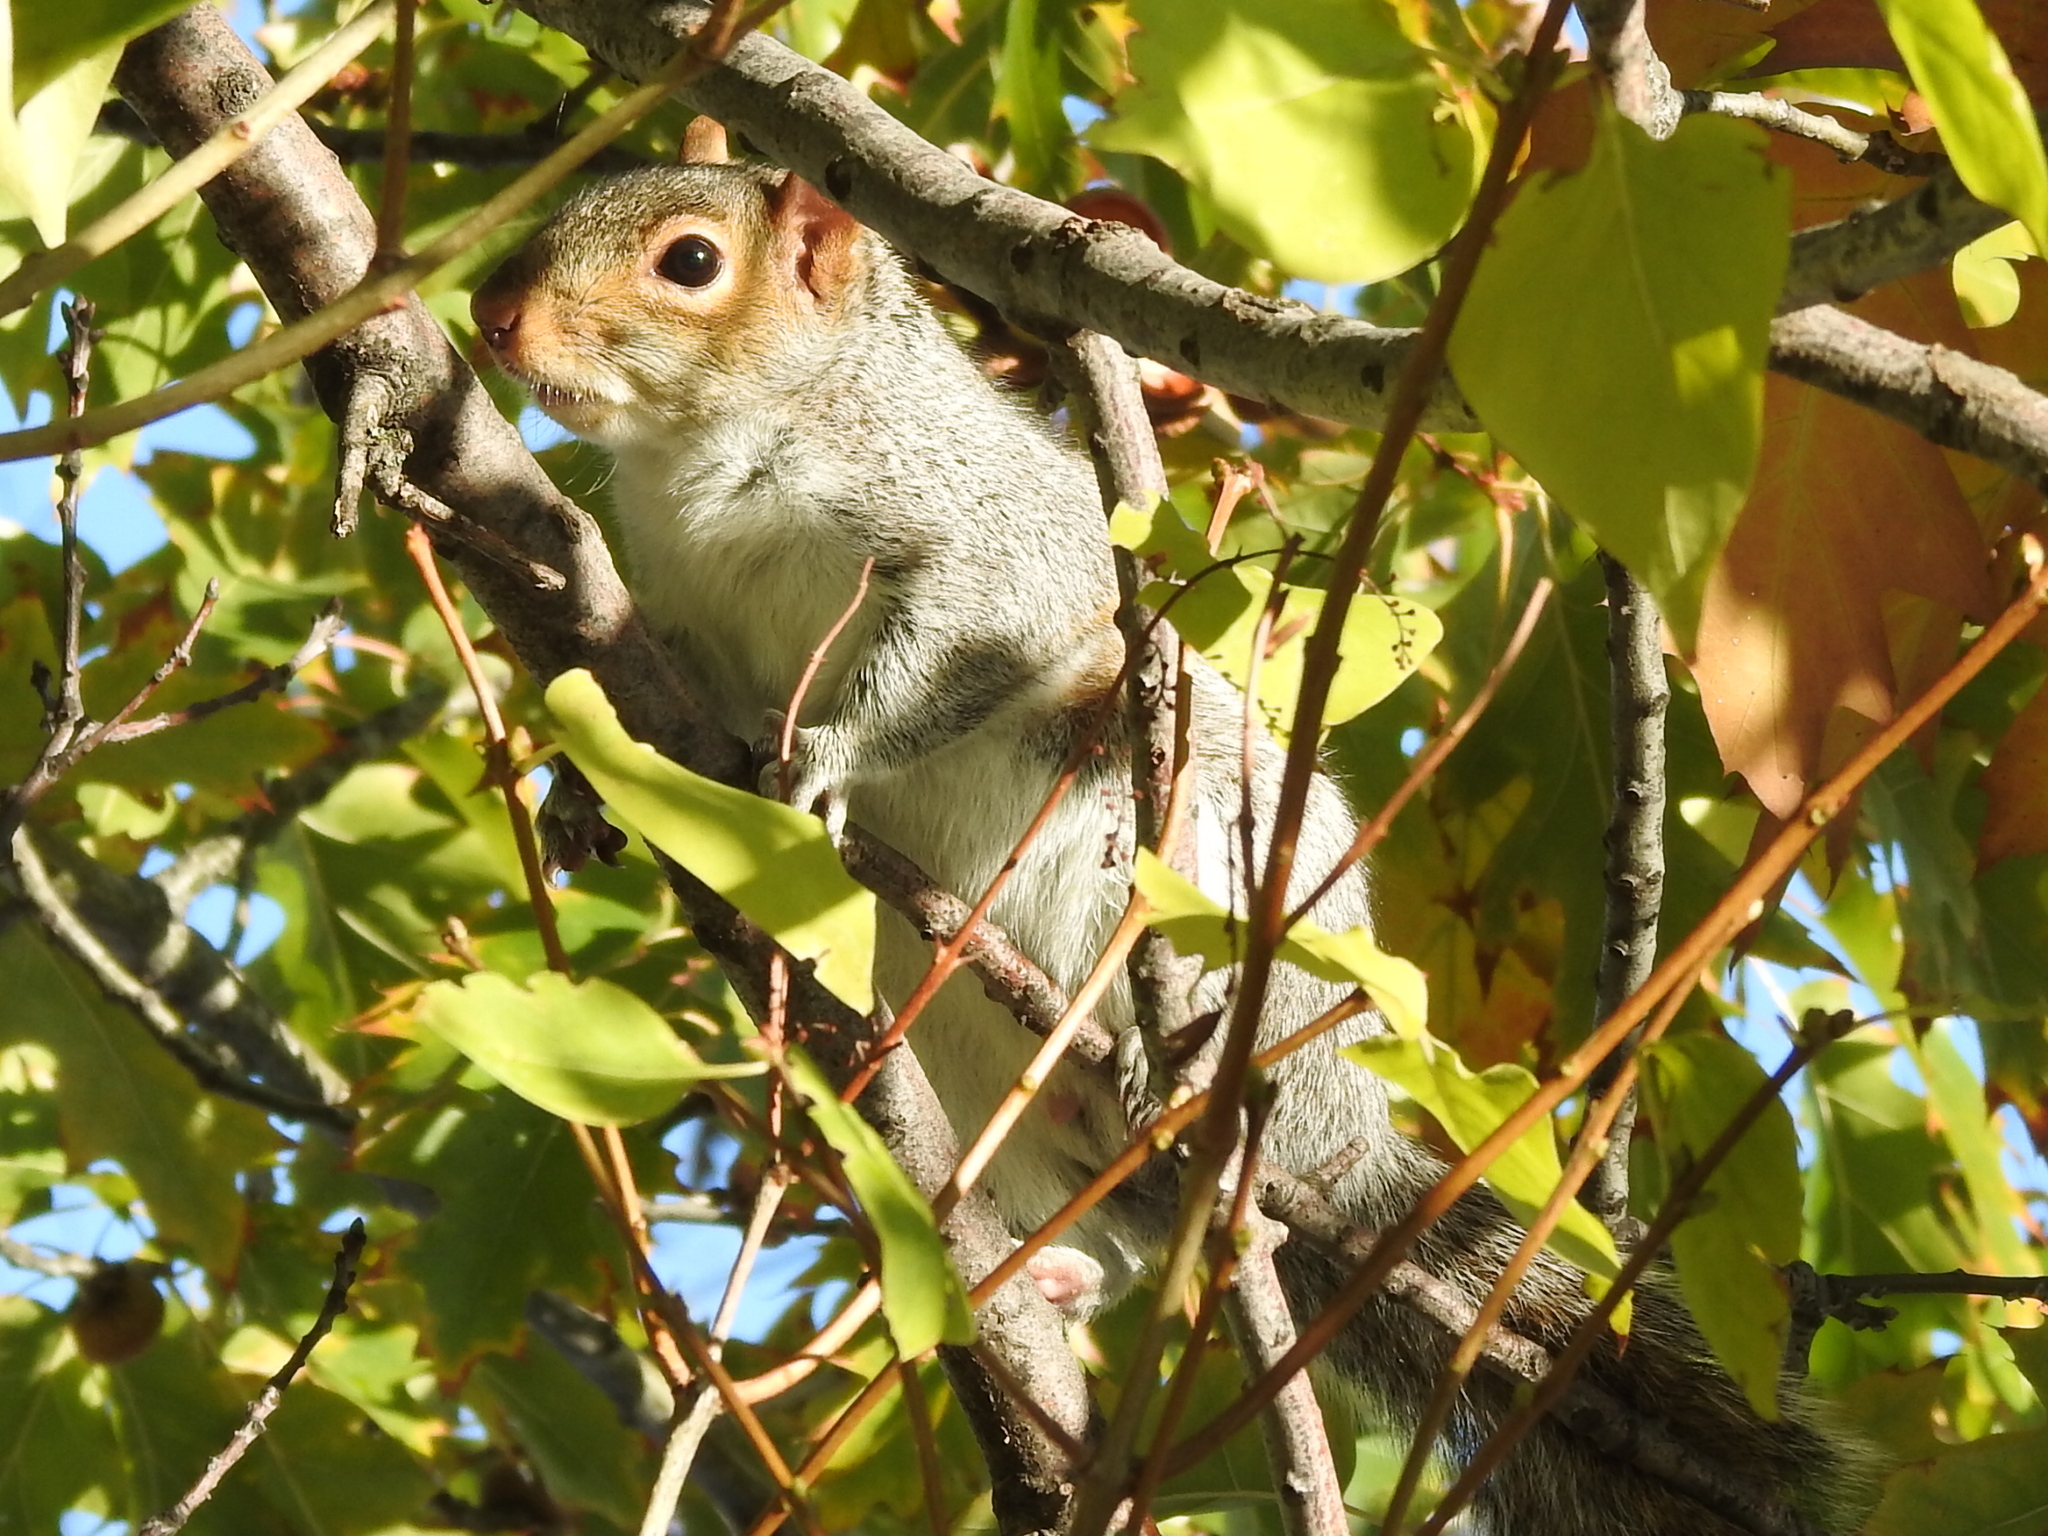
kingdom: Animalia
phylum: Chordata
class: Mammalia
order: Rodentia
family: Sciuridae
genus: Sciurus
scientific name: Sciurus carolinensis
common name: Eastern gray squirrel
